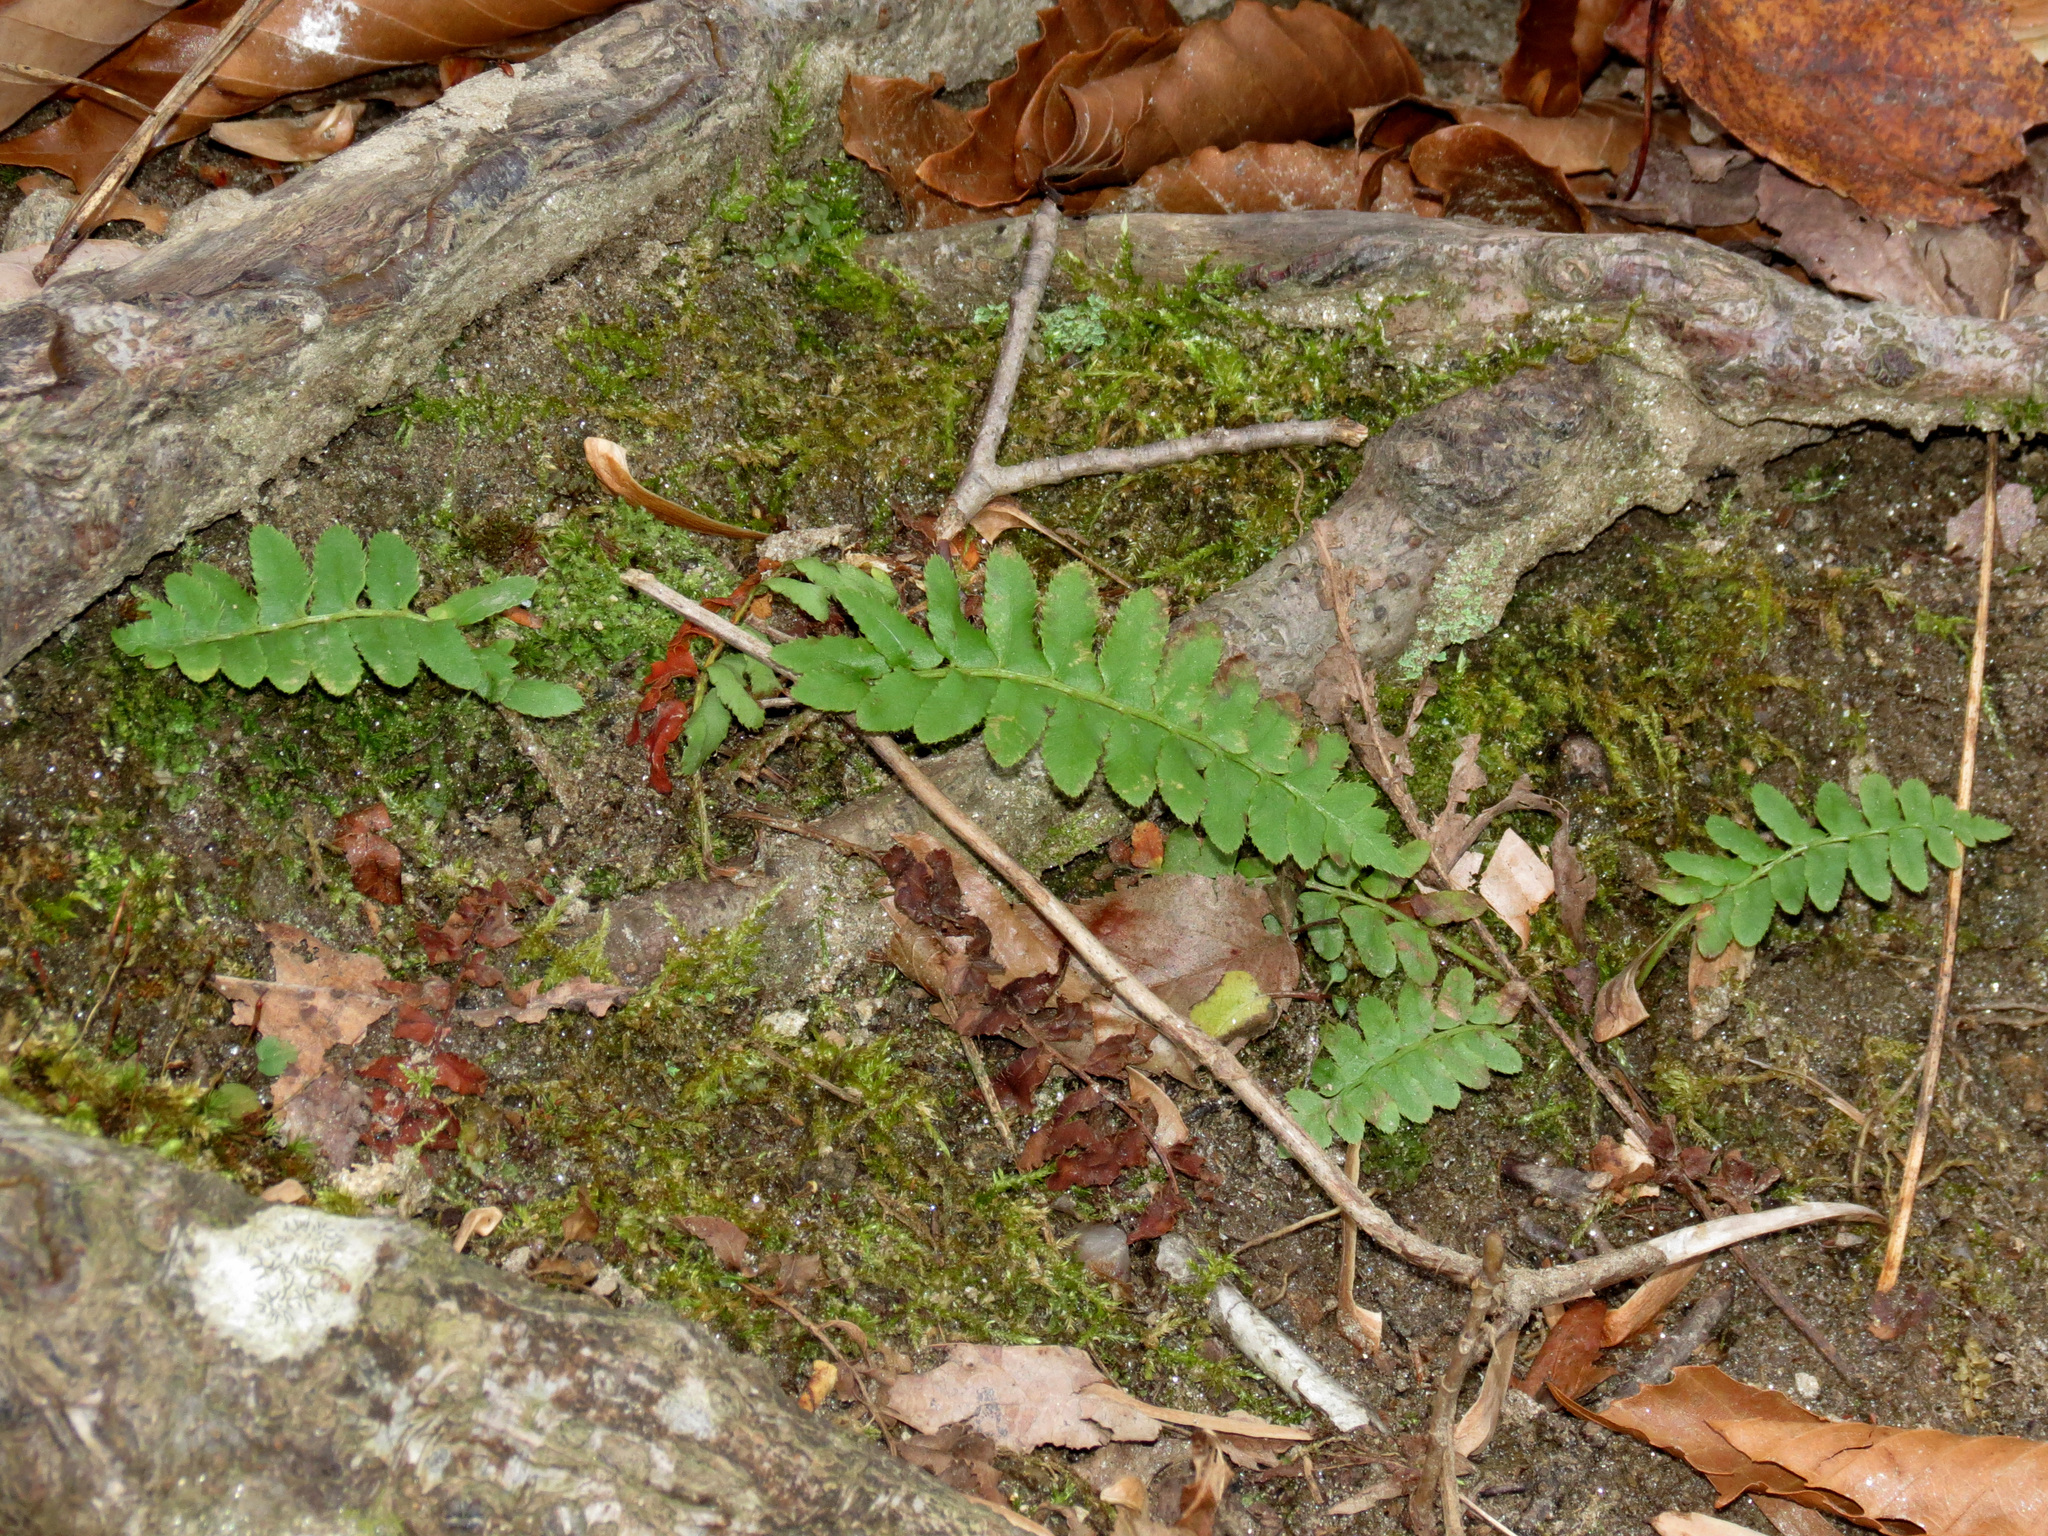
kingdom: Plantae
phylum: Tracheophyta
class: Polypodiopsida
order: Polypodiales
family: Dryopteridaceae
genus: Polystichum
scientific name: Polystichum acrostichoides
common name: Christmas fern
